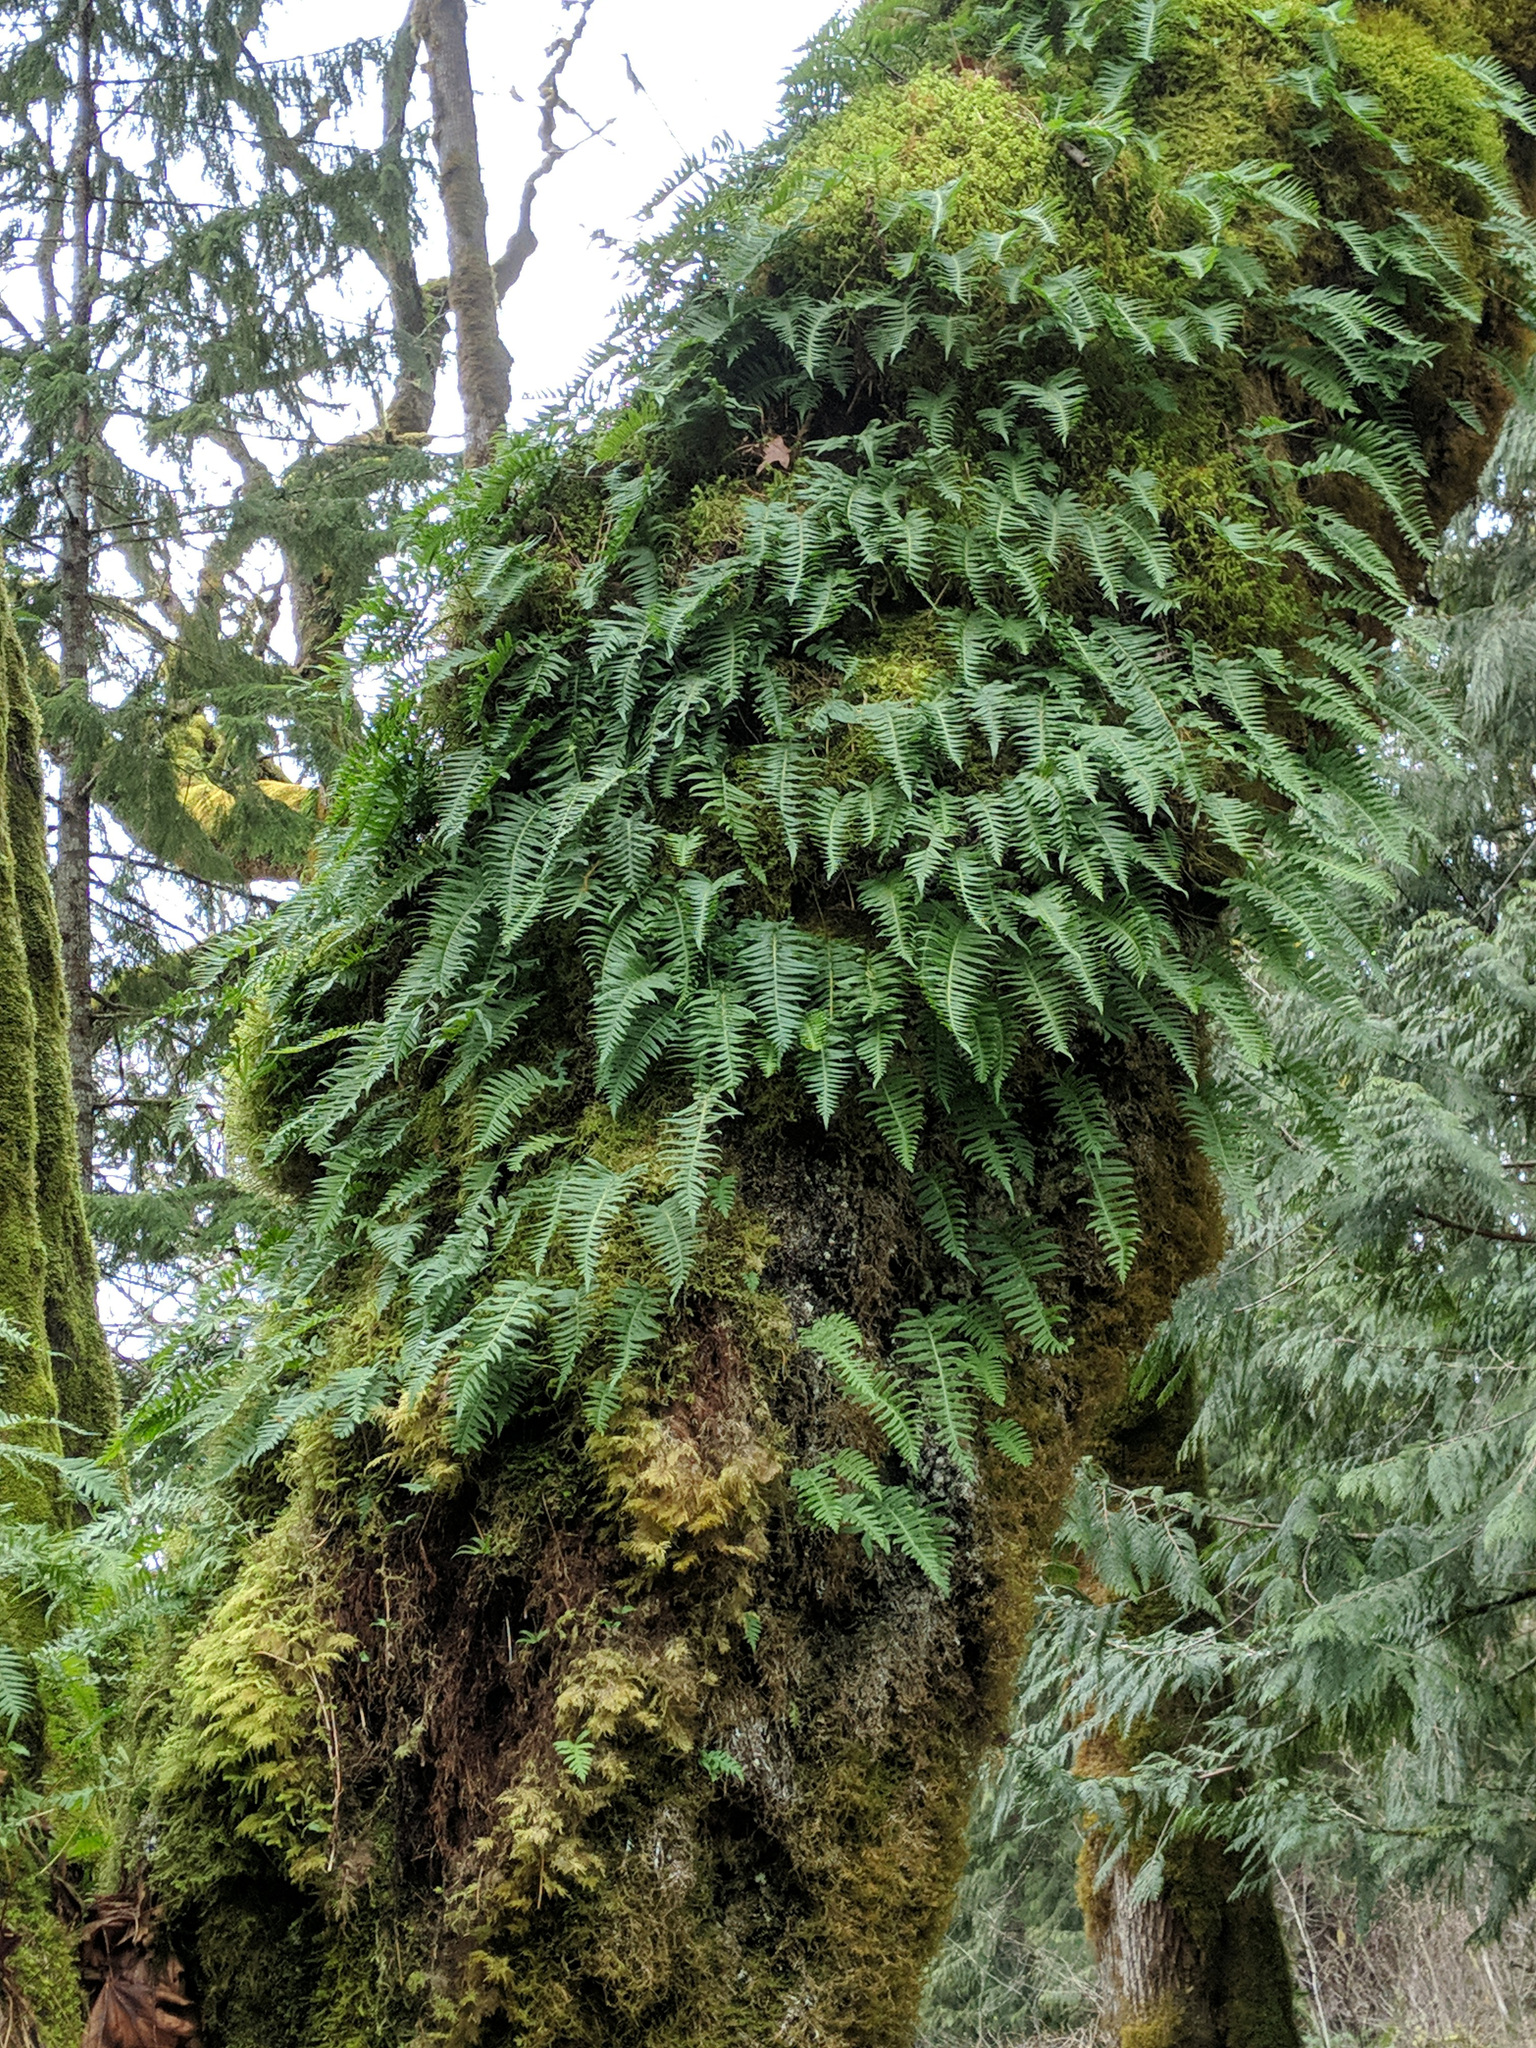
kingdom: Plantae
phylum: Tracheophyta
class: Polypodiopsida
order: Polypodiales
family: Polypodiaceae
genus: Polypodium
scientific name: Polypodium glycyrrhiza
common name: Licorice fern
